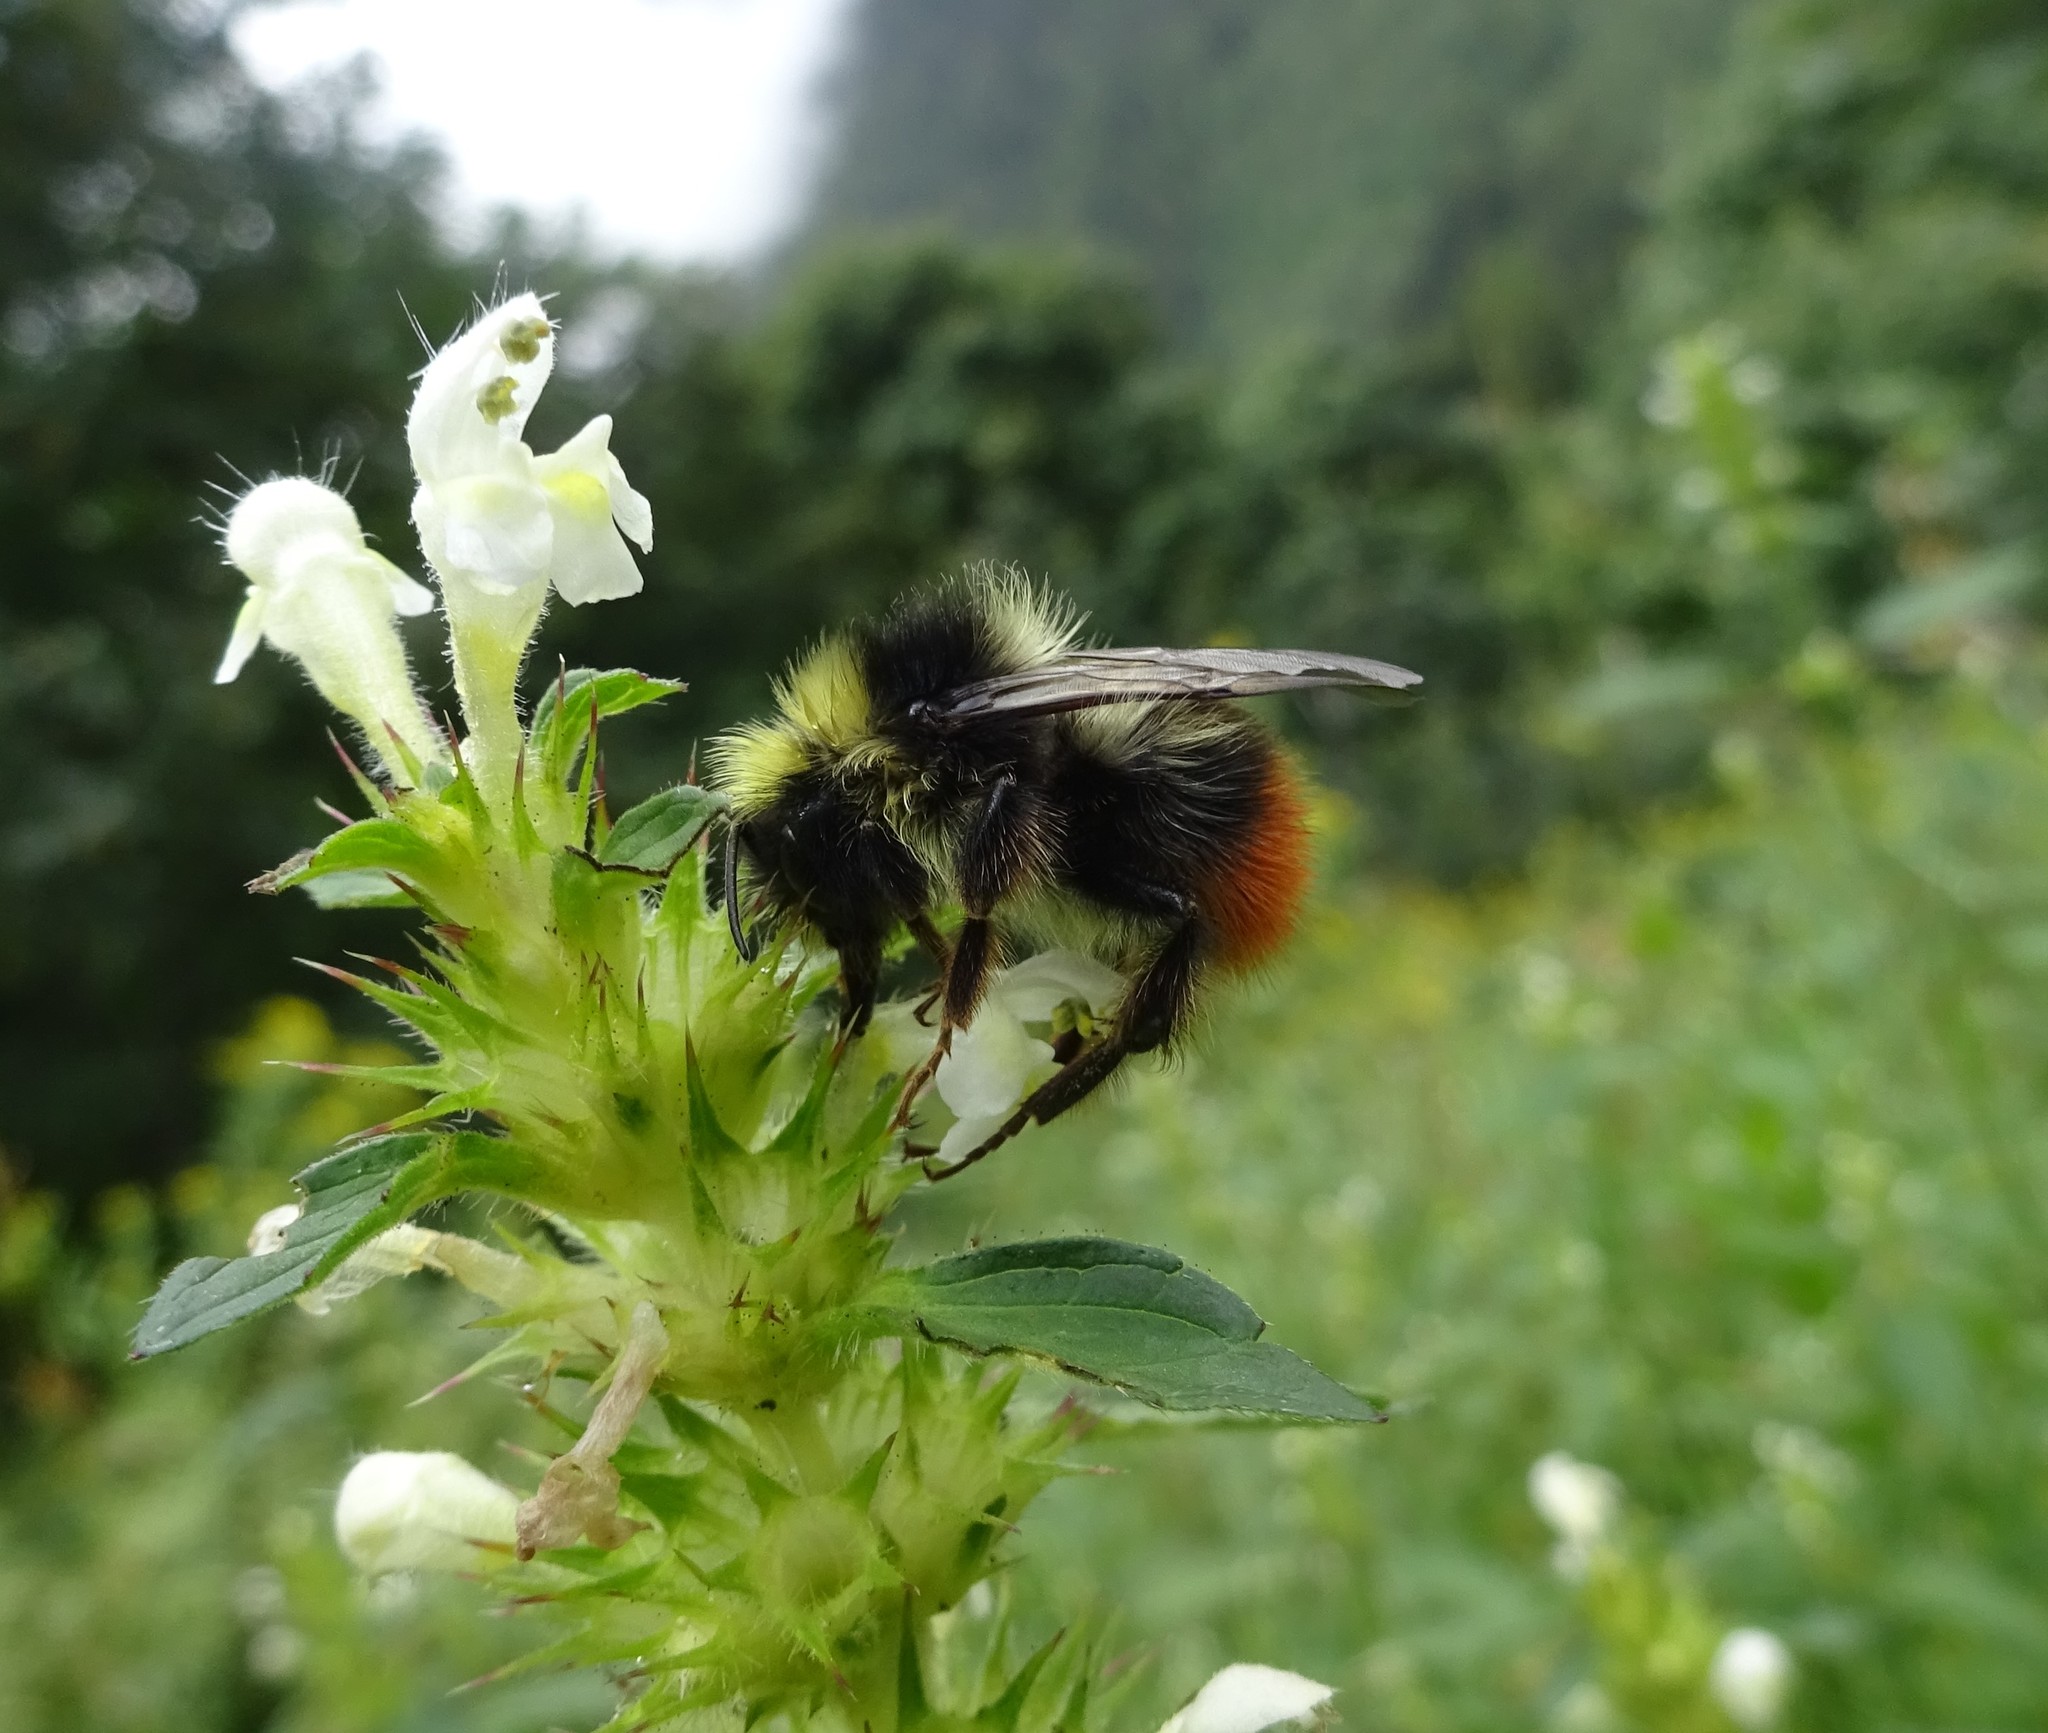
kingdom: Animalia
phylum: Arthropoda
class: Insecta
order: Hymenoptera
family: Apidae
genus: Bombus
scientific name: Bombus wurflenii
